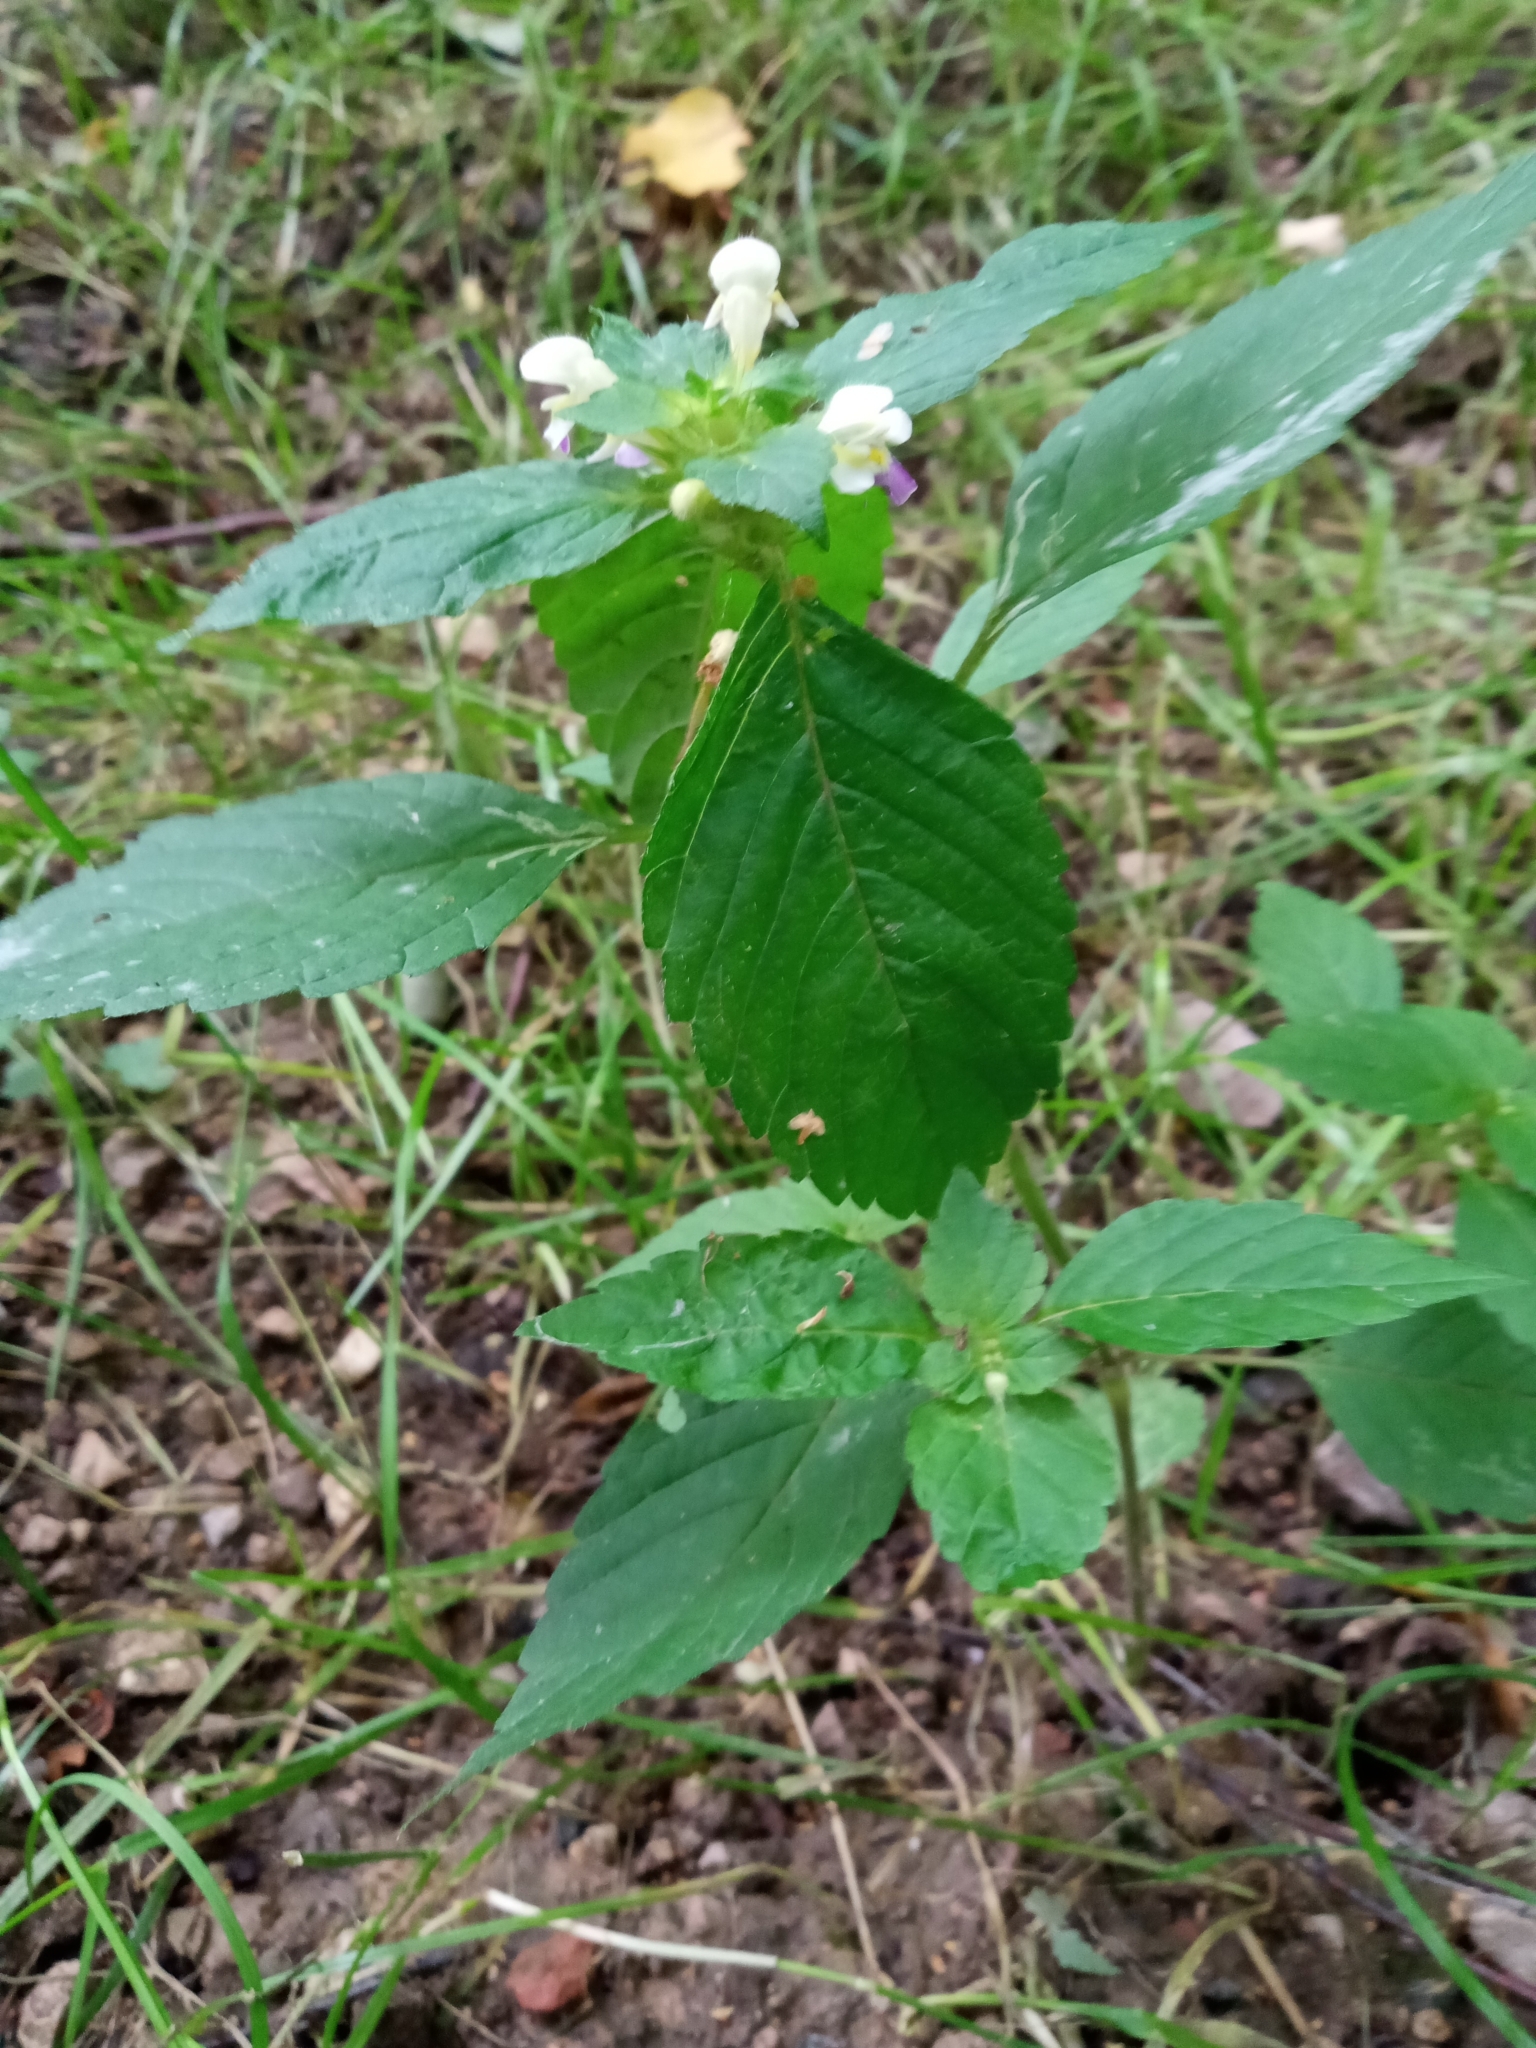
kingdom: Plantae
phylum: Tracheophyta
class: Magnoliopsida
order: Lamiales
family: Lamiaceae
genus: Galeopsis
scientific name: Galeopsis speciosa
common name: Large-flowered hemp-nettle
